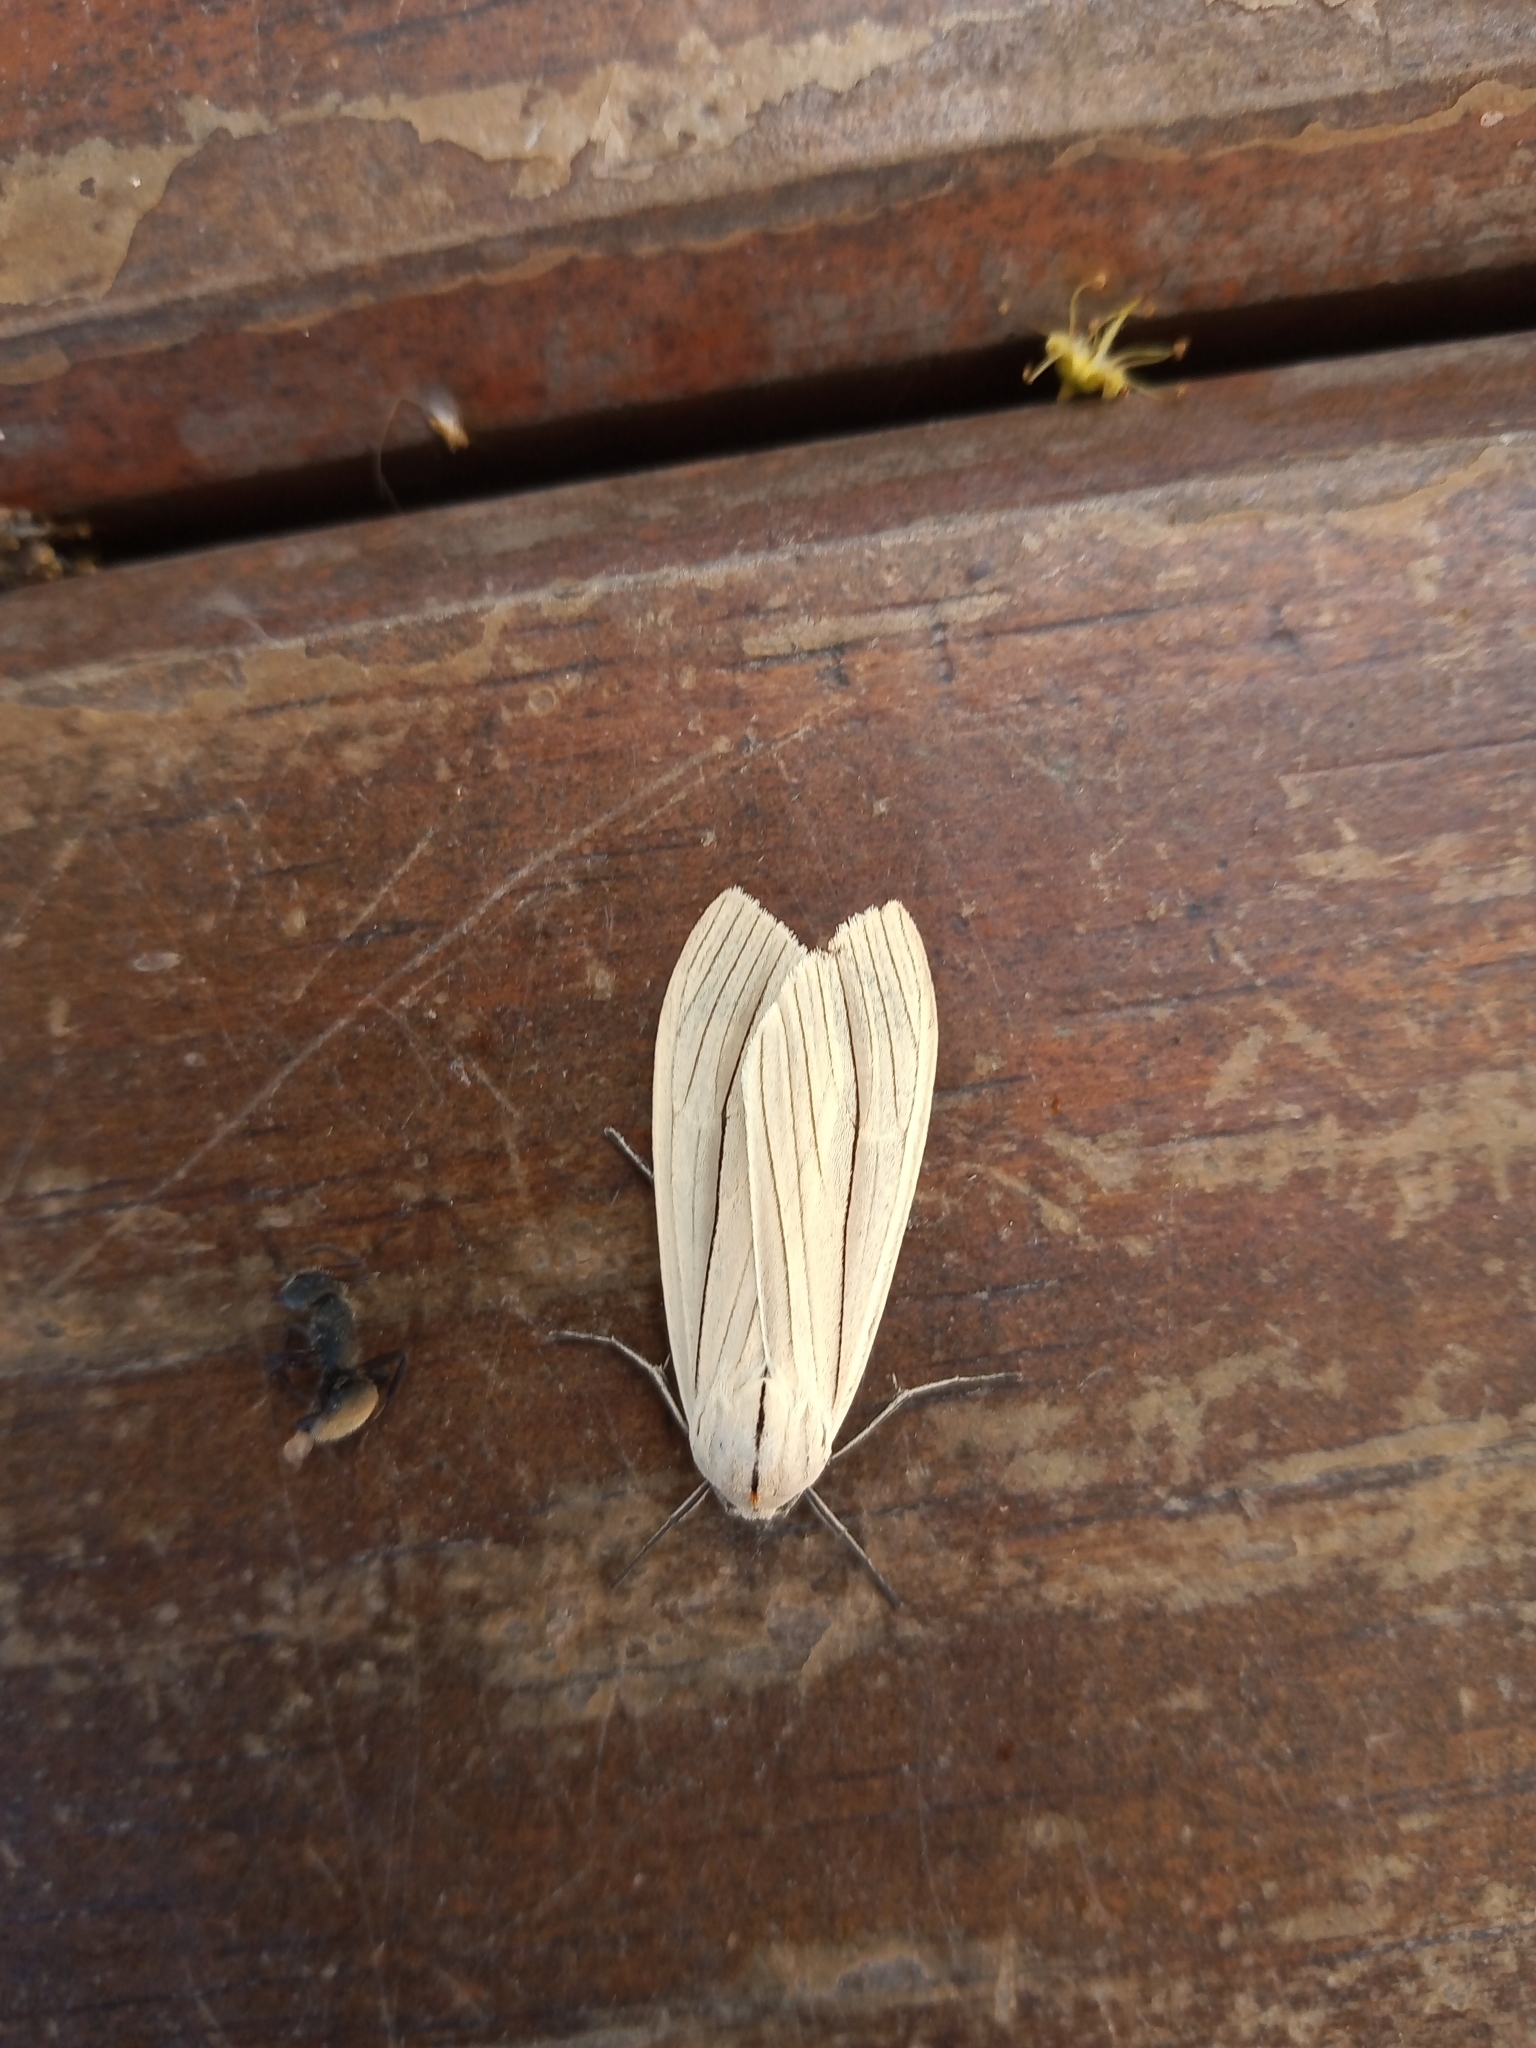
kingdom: Animalia
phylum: Arthropoda
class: Insecta
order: Lepidoptera
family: Erebidae
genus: Biturix
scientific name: Biturix rectilinea
